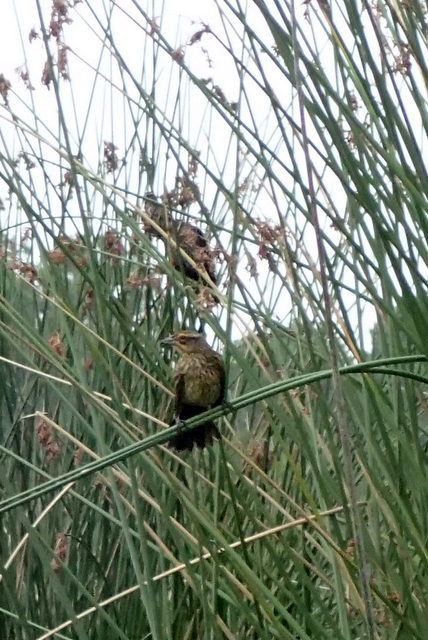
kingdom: Animalia
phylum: Chordata
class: Aves
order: Passeriformes
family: Icteridae
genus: Agelaius
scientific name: Agelaius phoeniceus
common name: Red-winged blackbird
